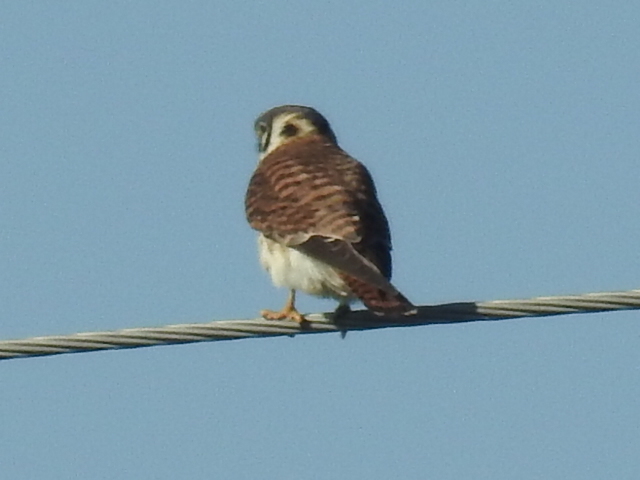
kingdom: Animalia
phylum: Chordata
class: Aves
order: Falconiformes
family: Falconidae
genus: Falco
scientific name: Falco sparverius
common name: American kestrel
